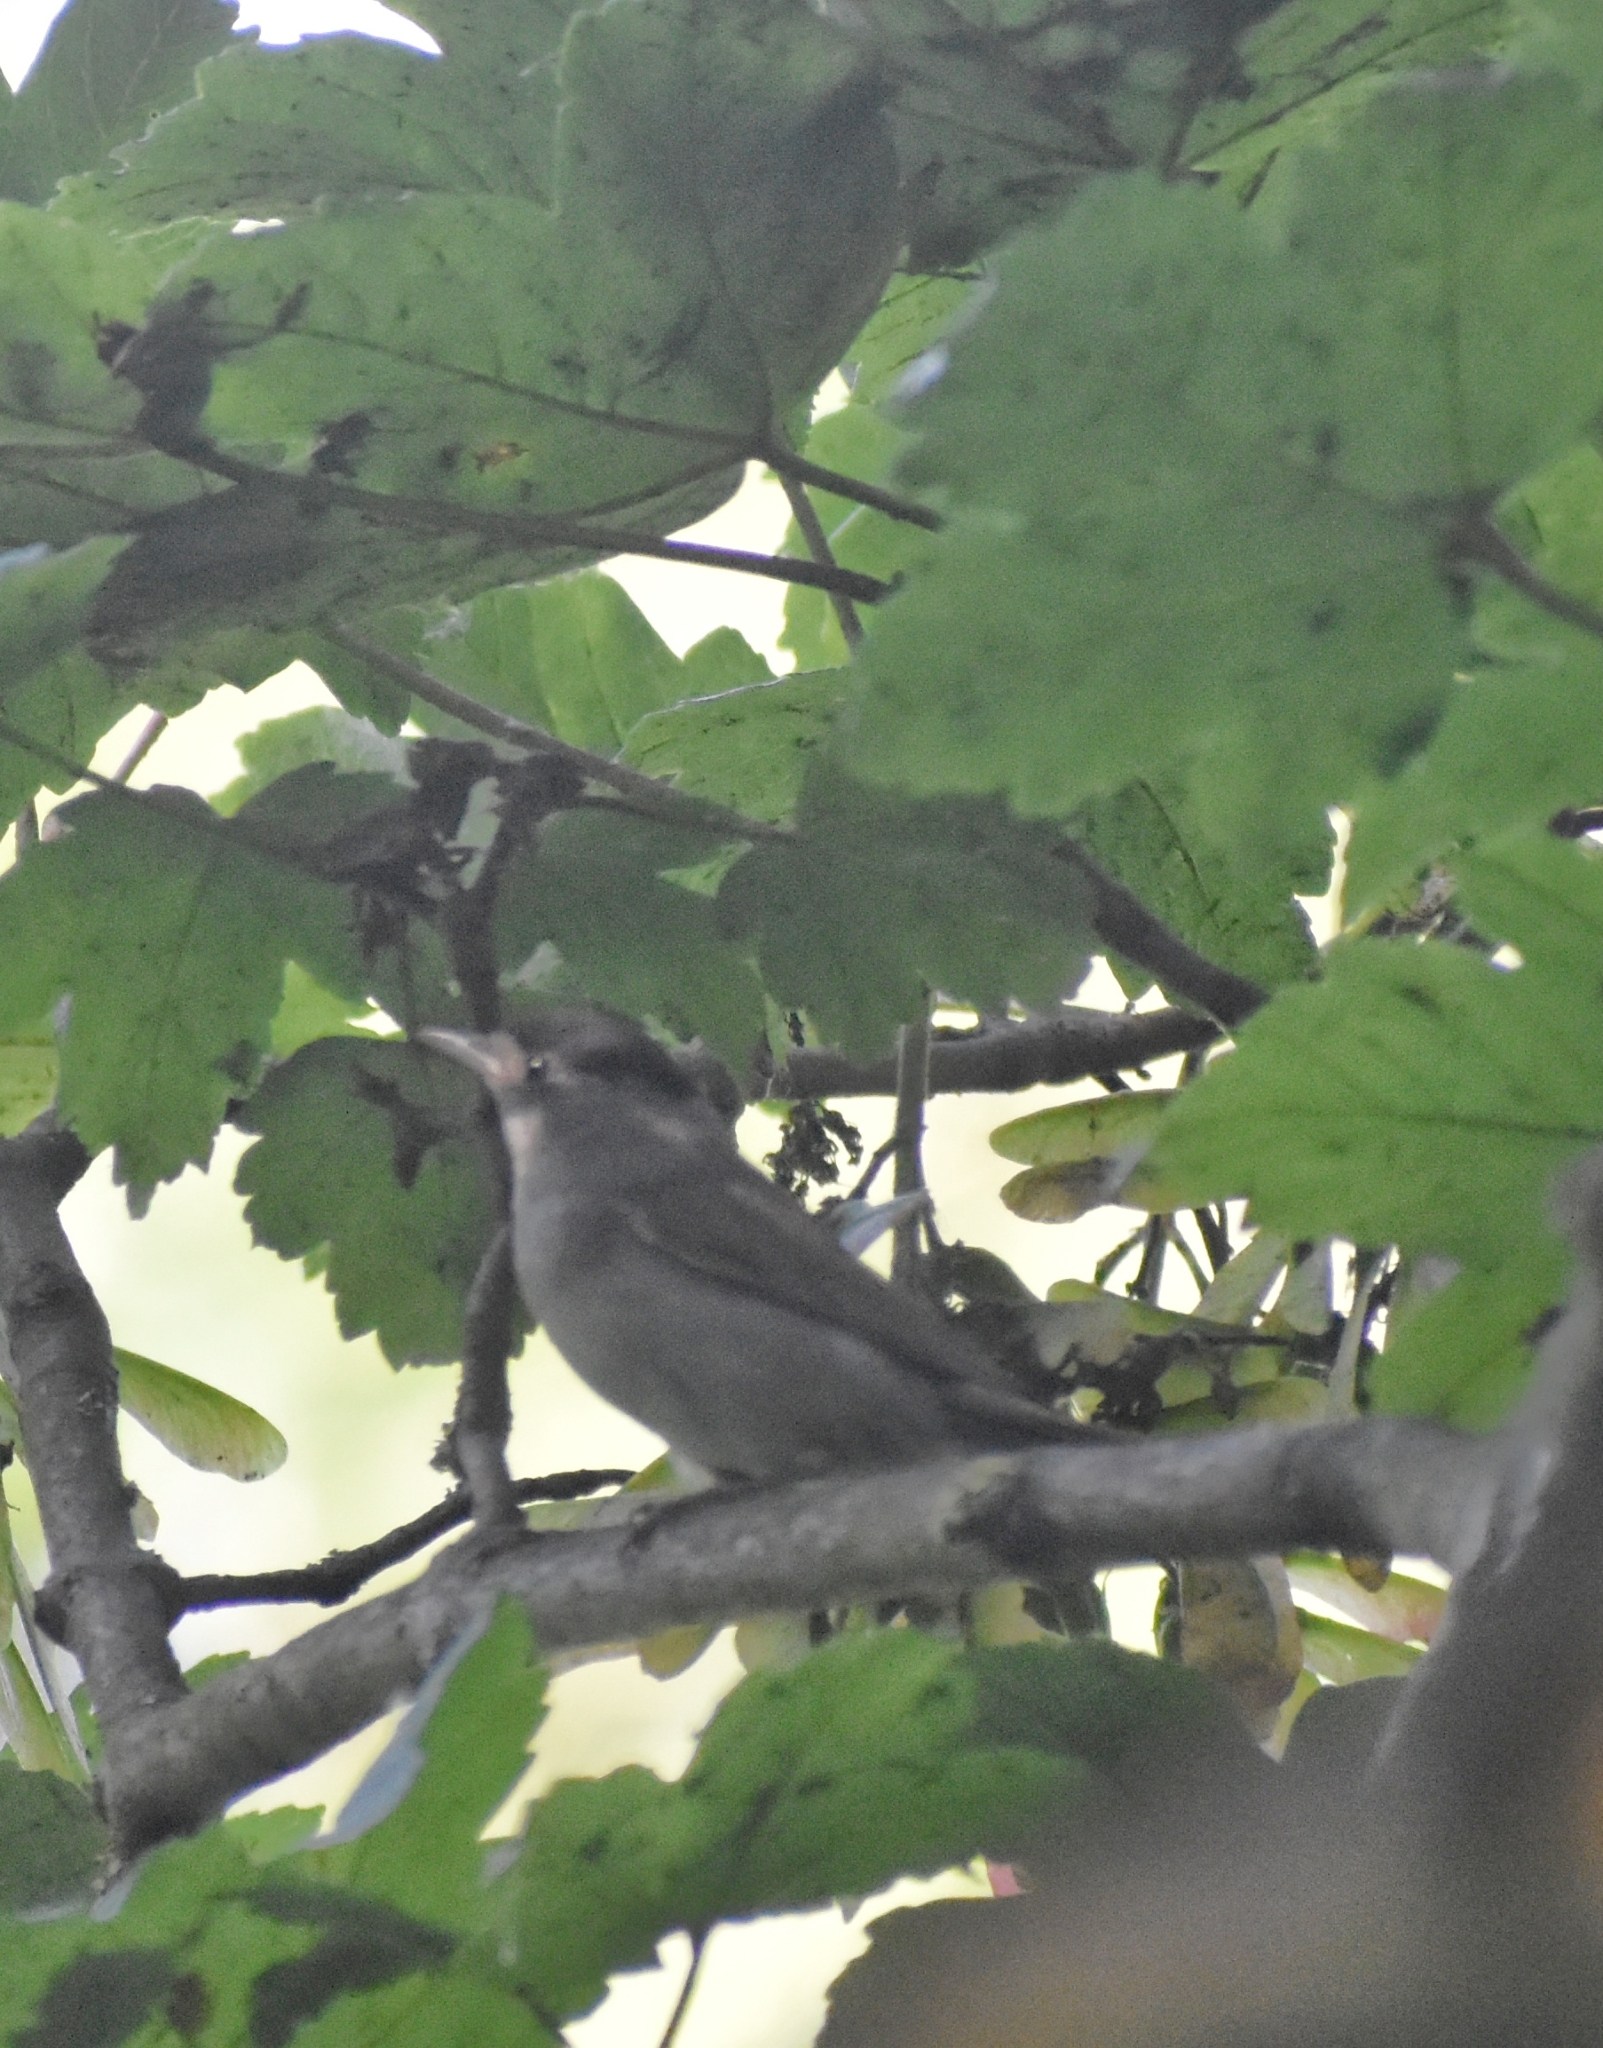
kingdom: Animalia
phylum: Chordata
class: Aves
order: Passeriformes
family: Sylviidae
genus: Sylvia
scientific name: Sylvia atricapilla
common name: Eurasian blackcap
